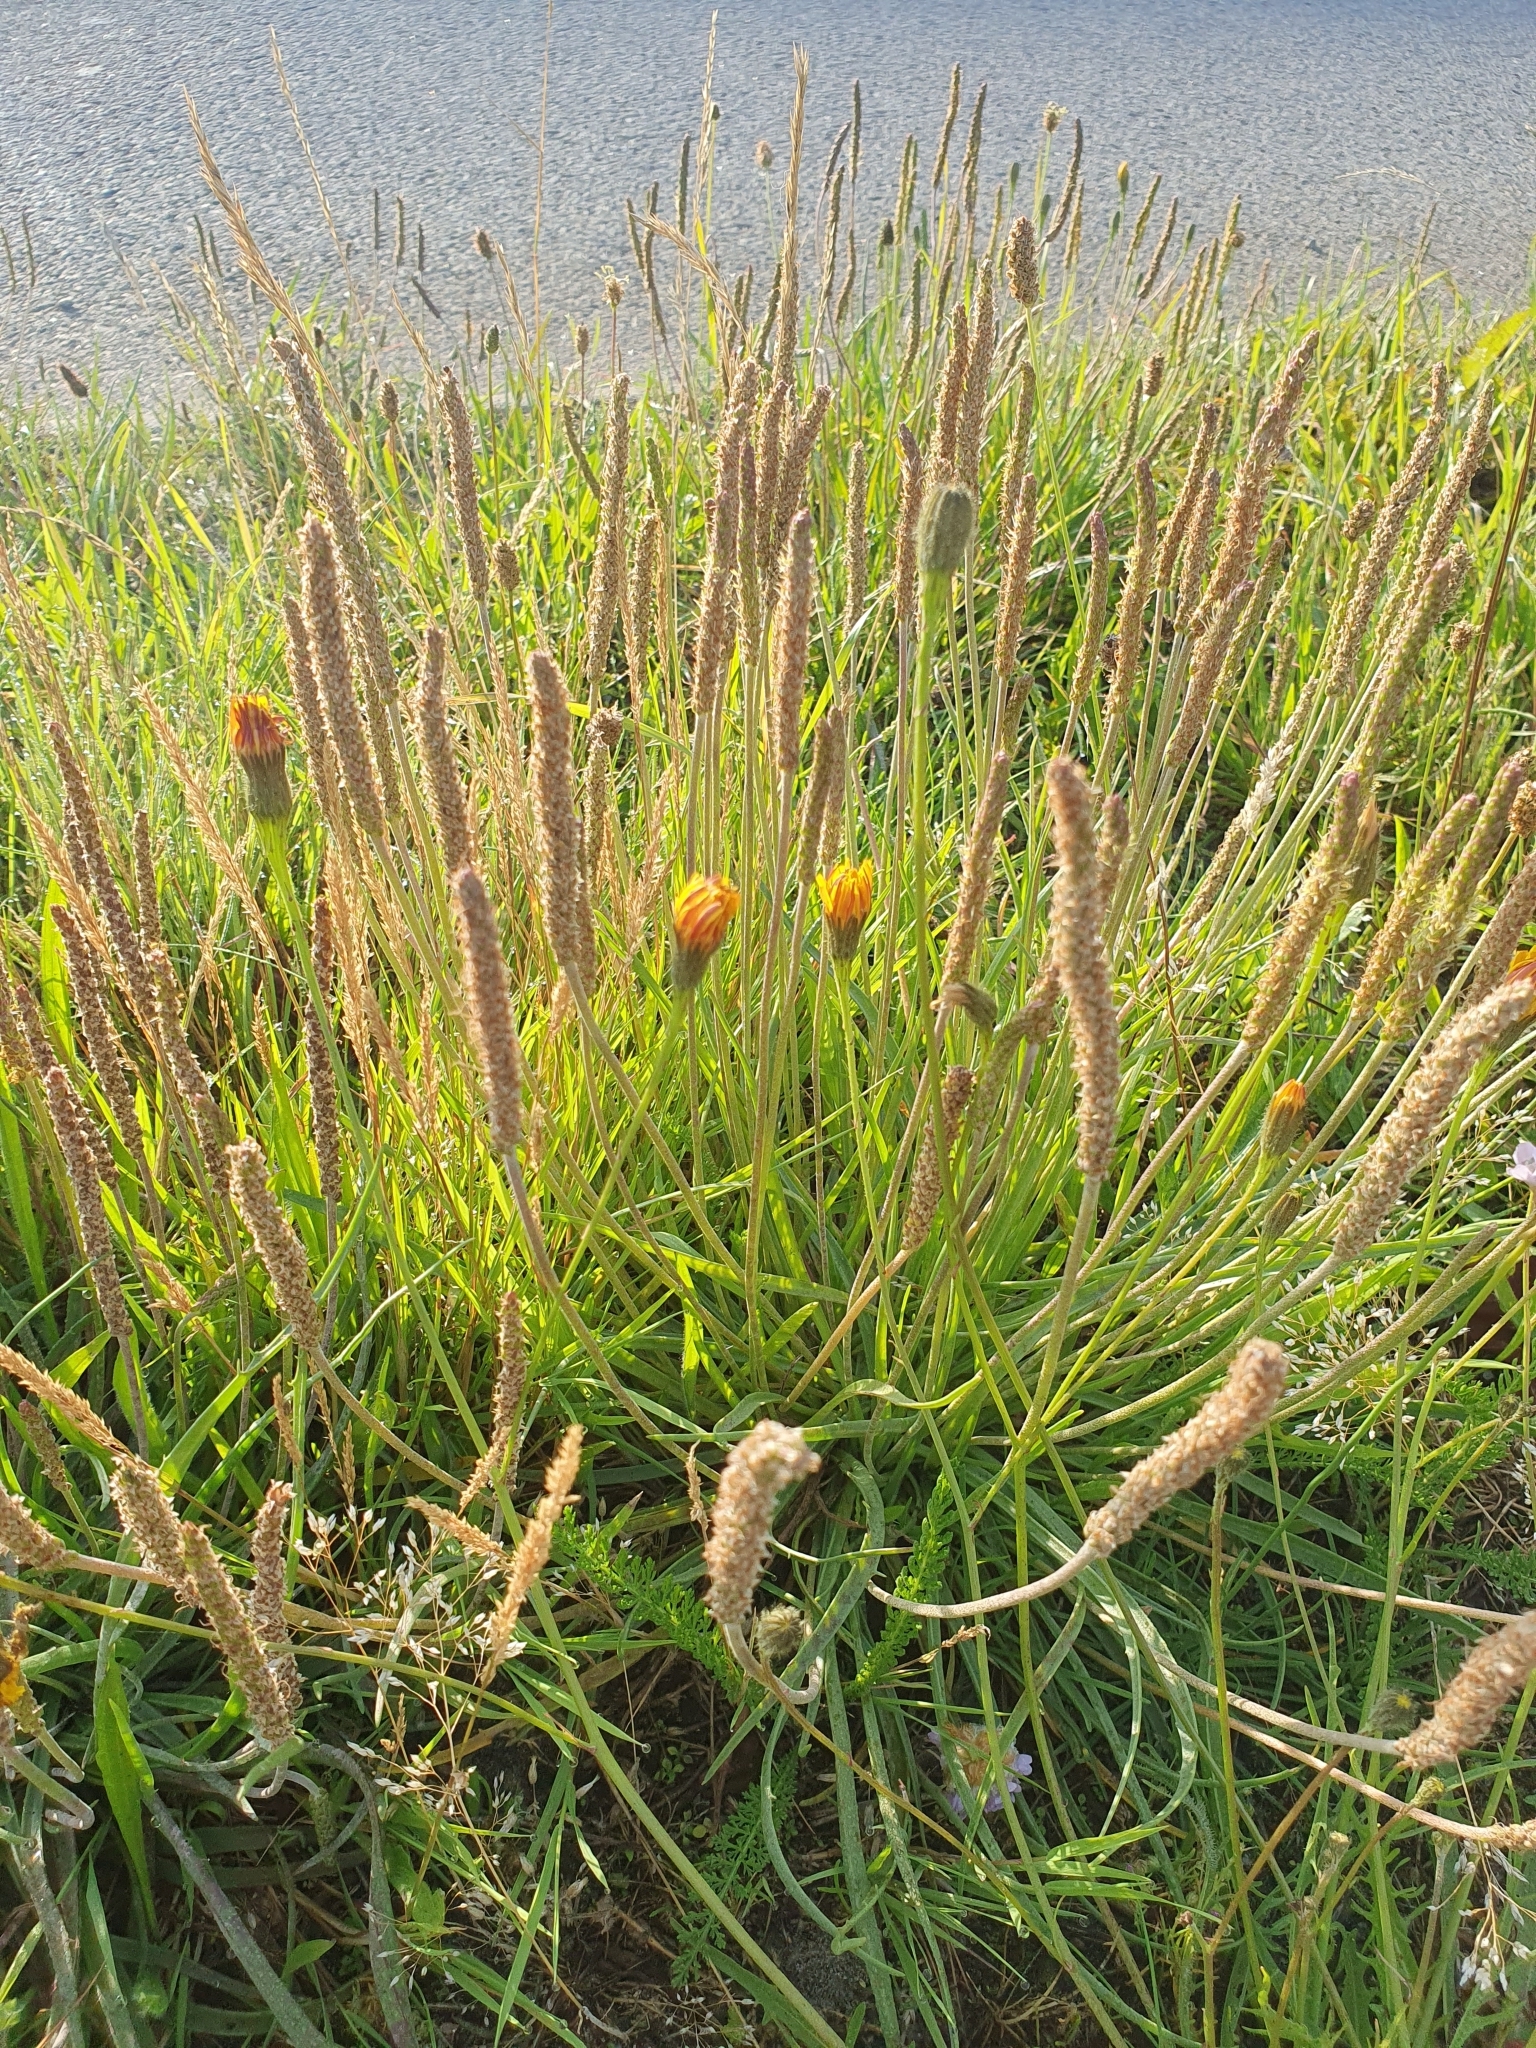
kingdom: Plantae
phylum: Tracheophyta
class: Magnoliopsida
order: Lamiales
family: Plantaginaceae
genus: Plantago
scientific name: Plantago maritima
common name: Sea plantain
